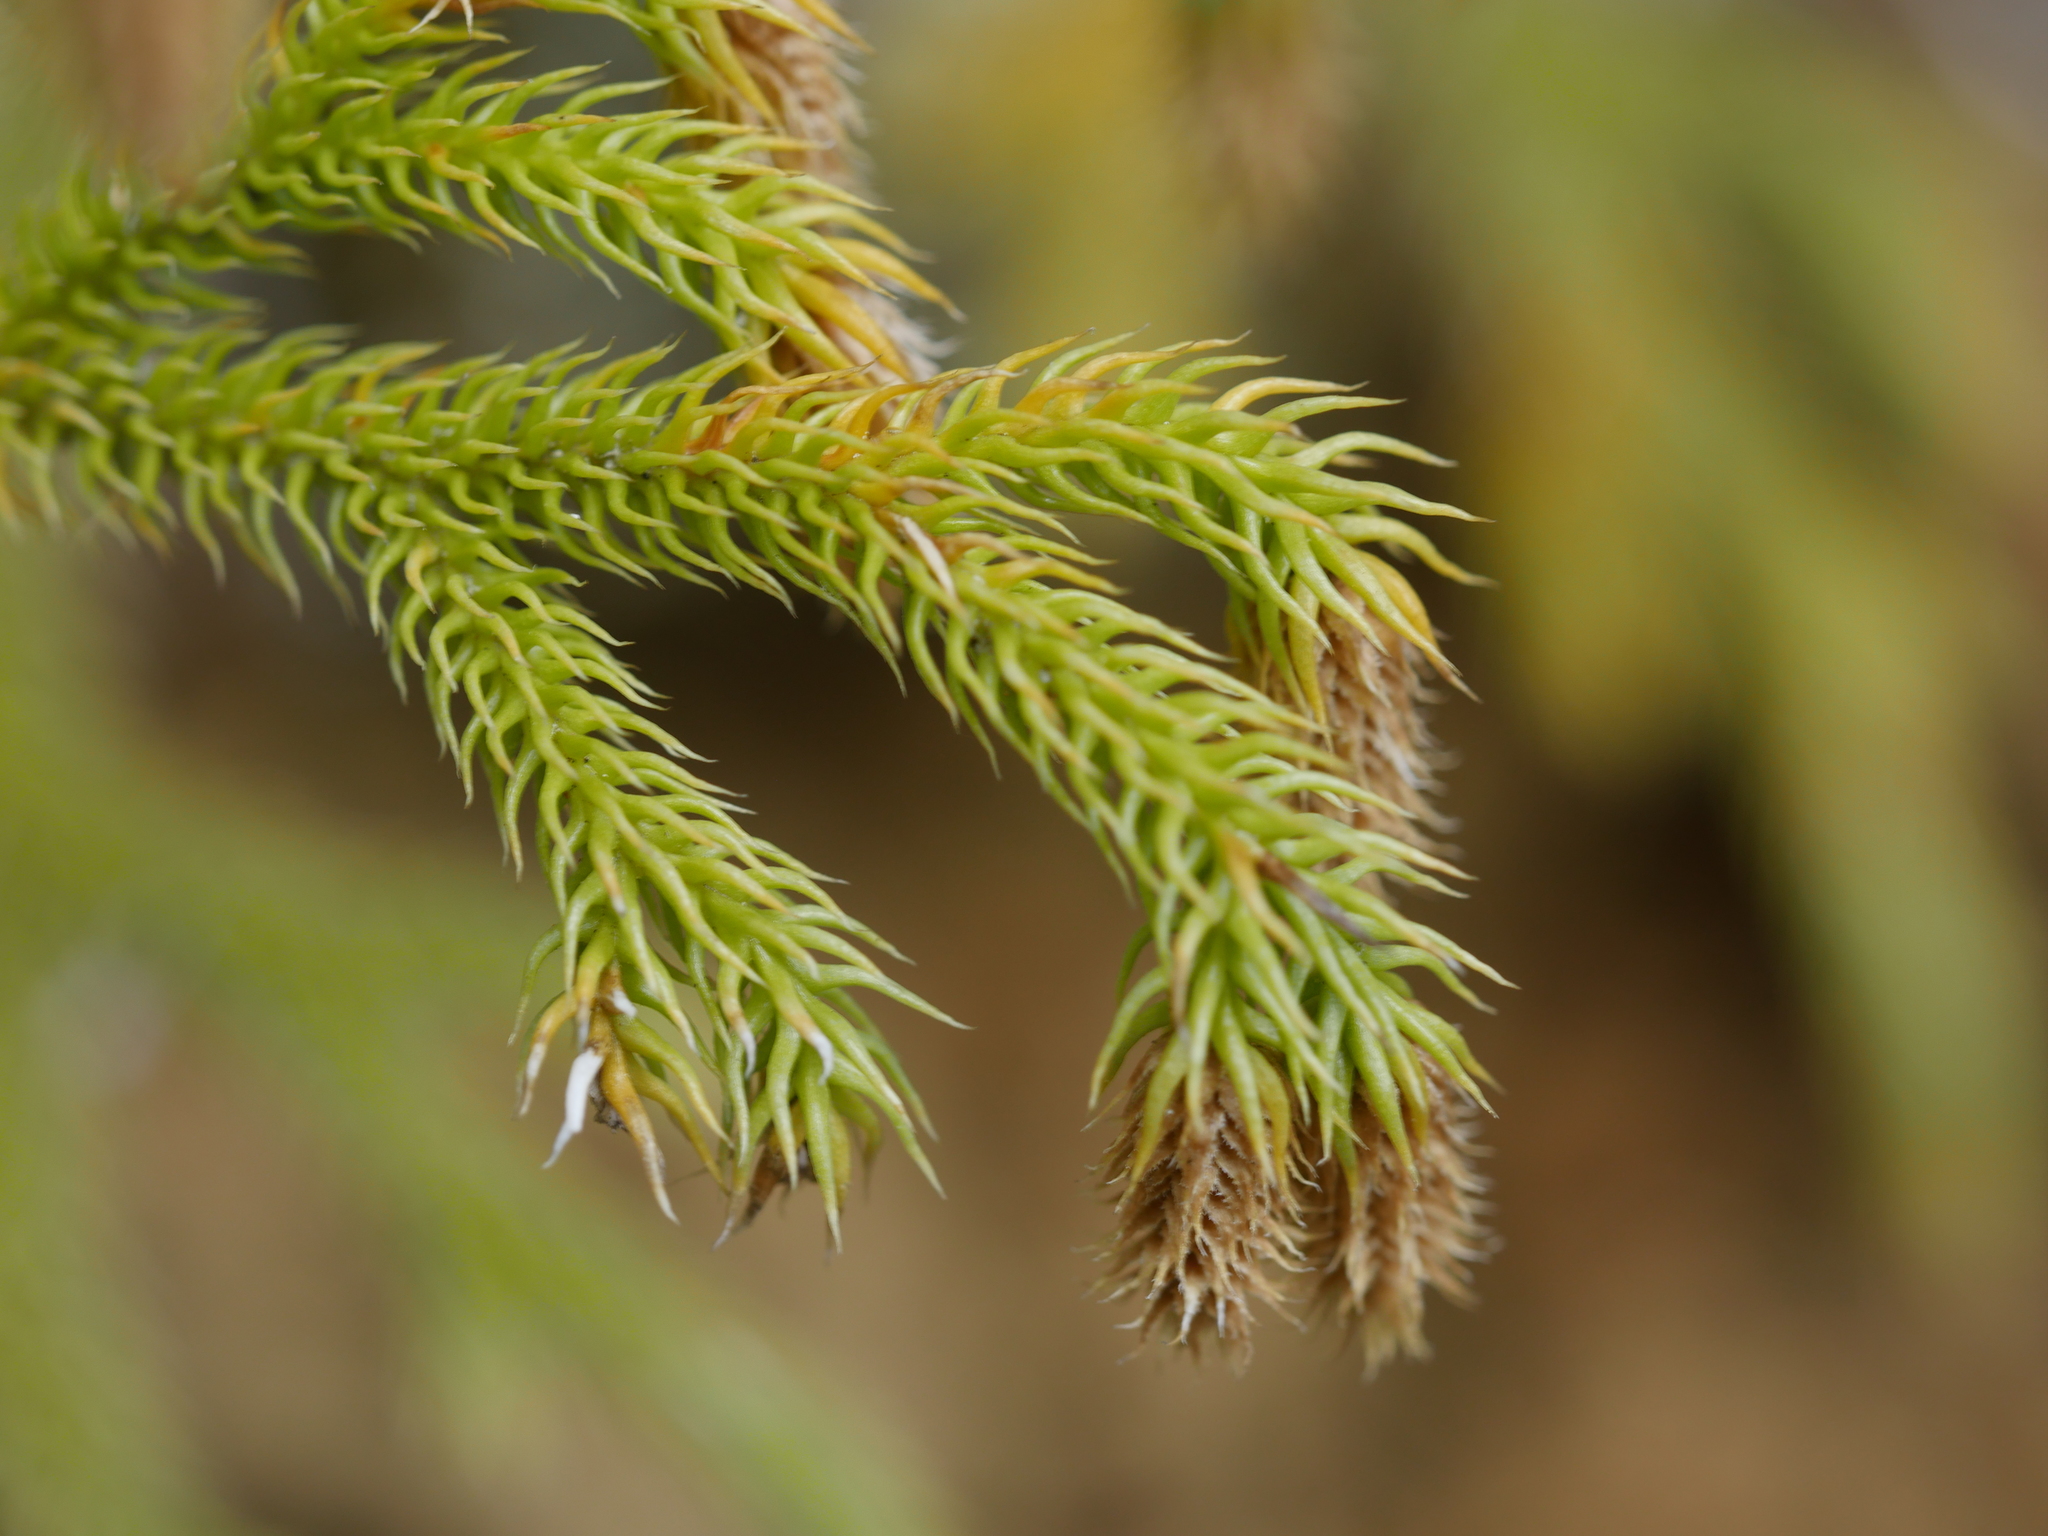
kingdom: Plantae
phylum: Tracheophyta
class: Lycopodiopsida
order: Lycopodiales
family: Lycopodiaceae
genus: Palhinhaea
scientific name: Palhinhaea cernua
